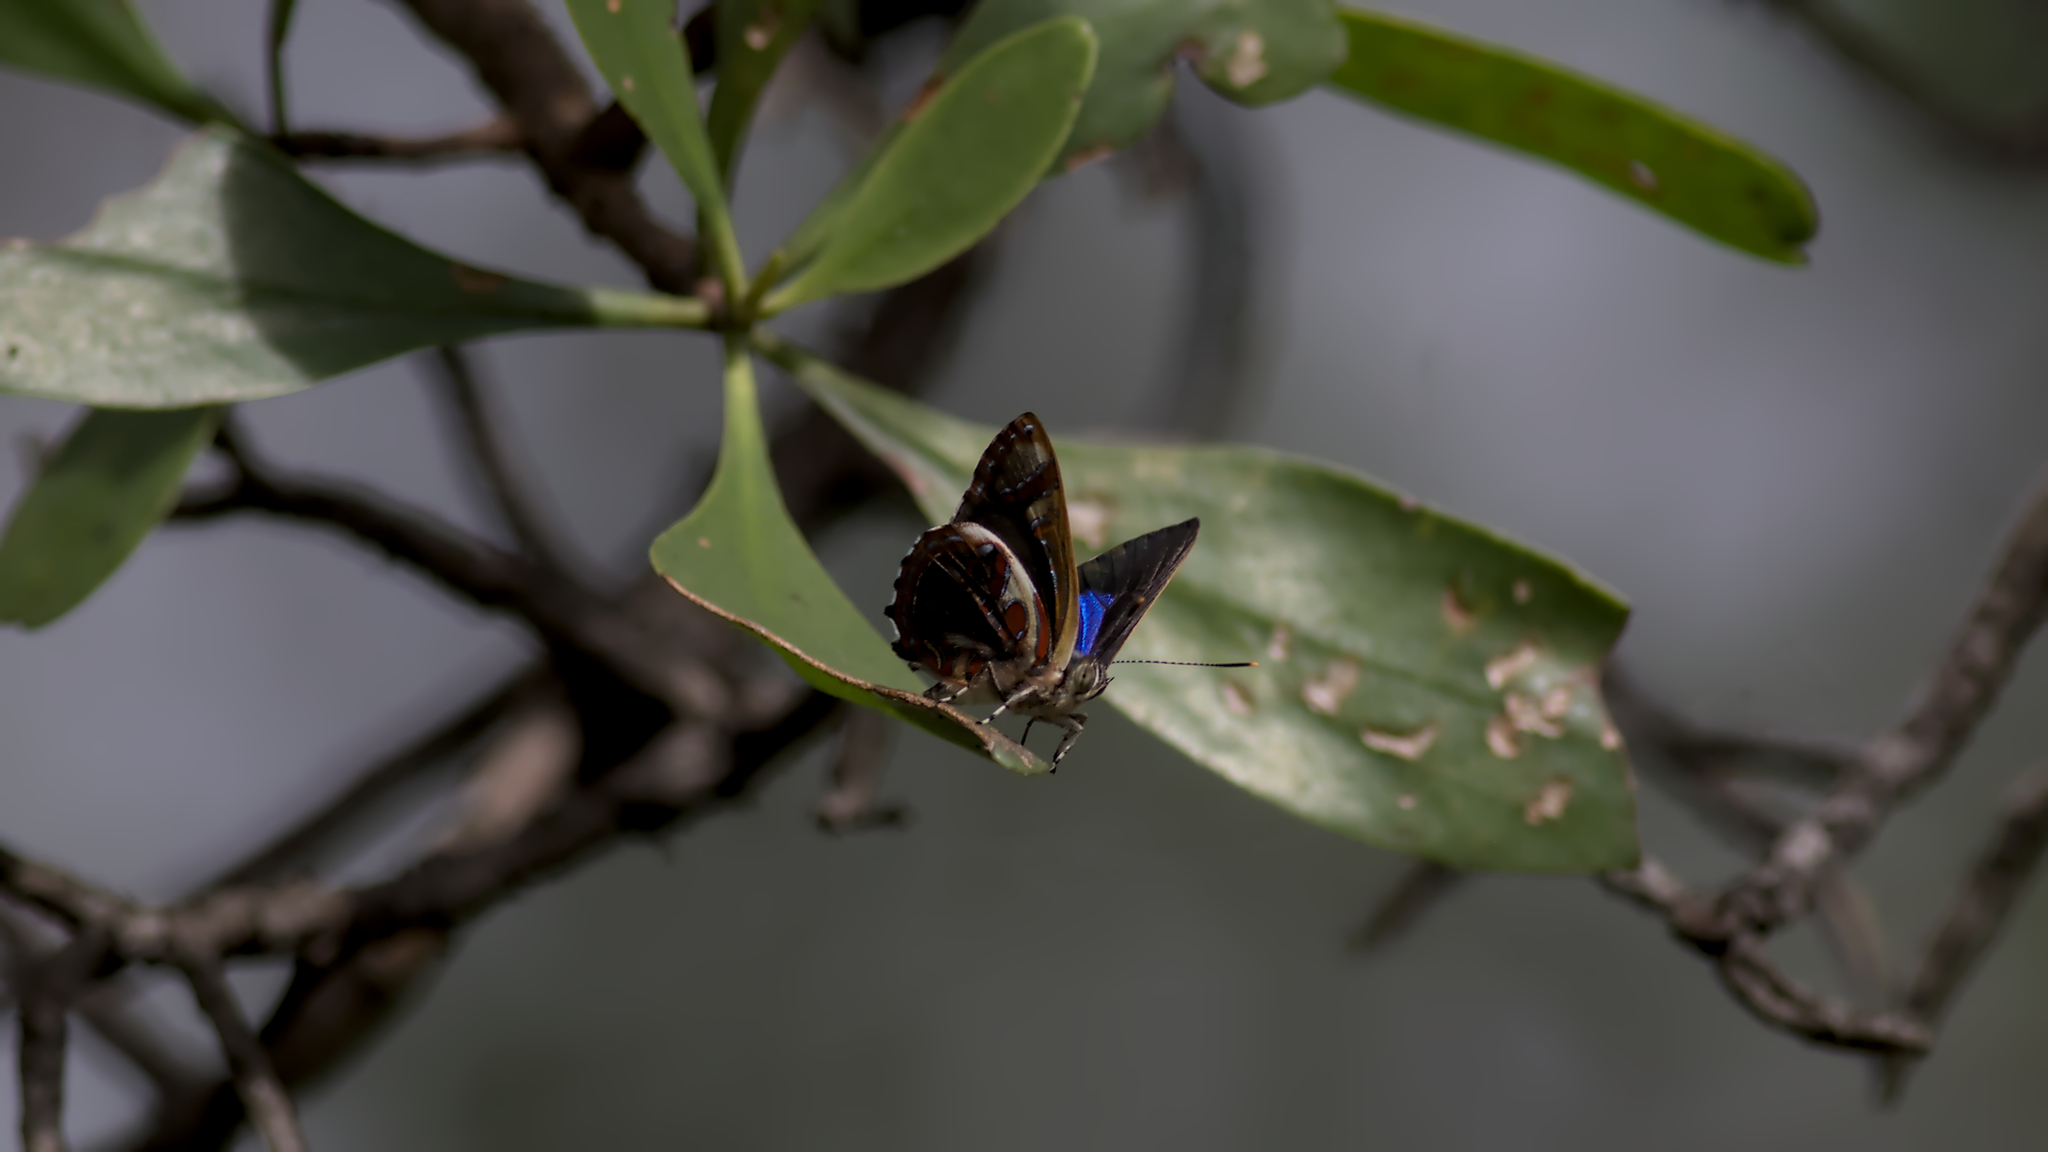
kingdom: Animalia
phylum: Arthropoda
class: Insecta
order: Lepidoptera
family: Lycaenidae
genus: Hypochrysops
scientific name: Hypochrysops narcissus
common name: Narcissus jewel
